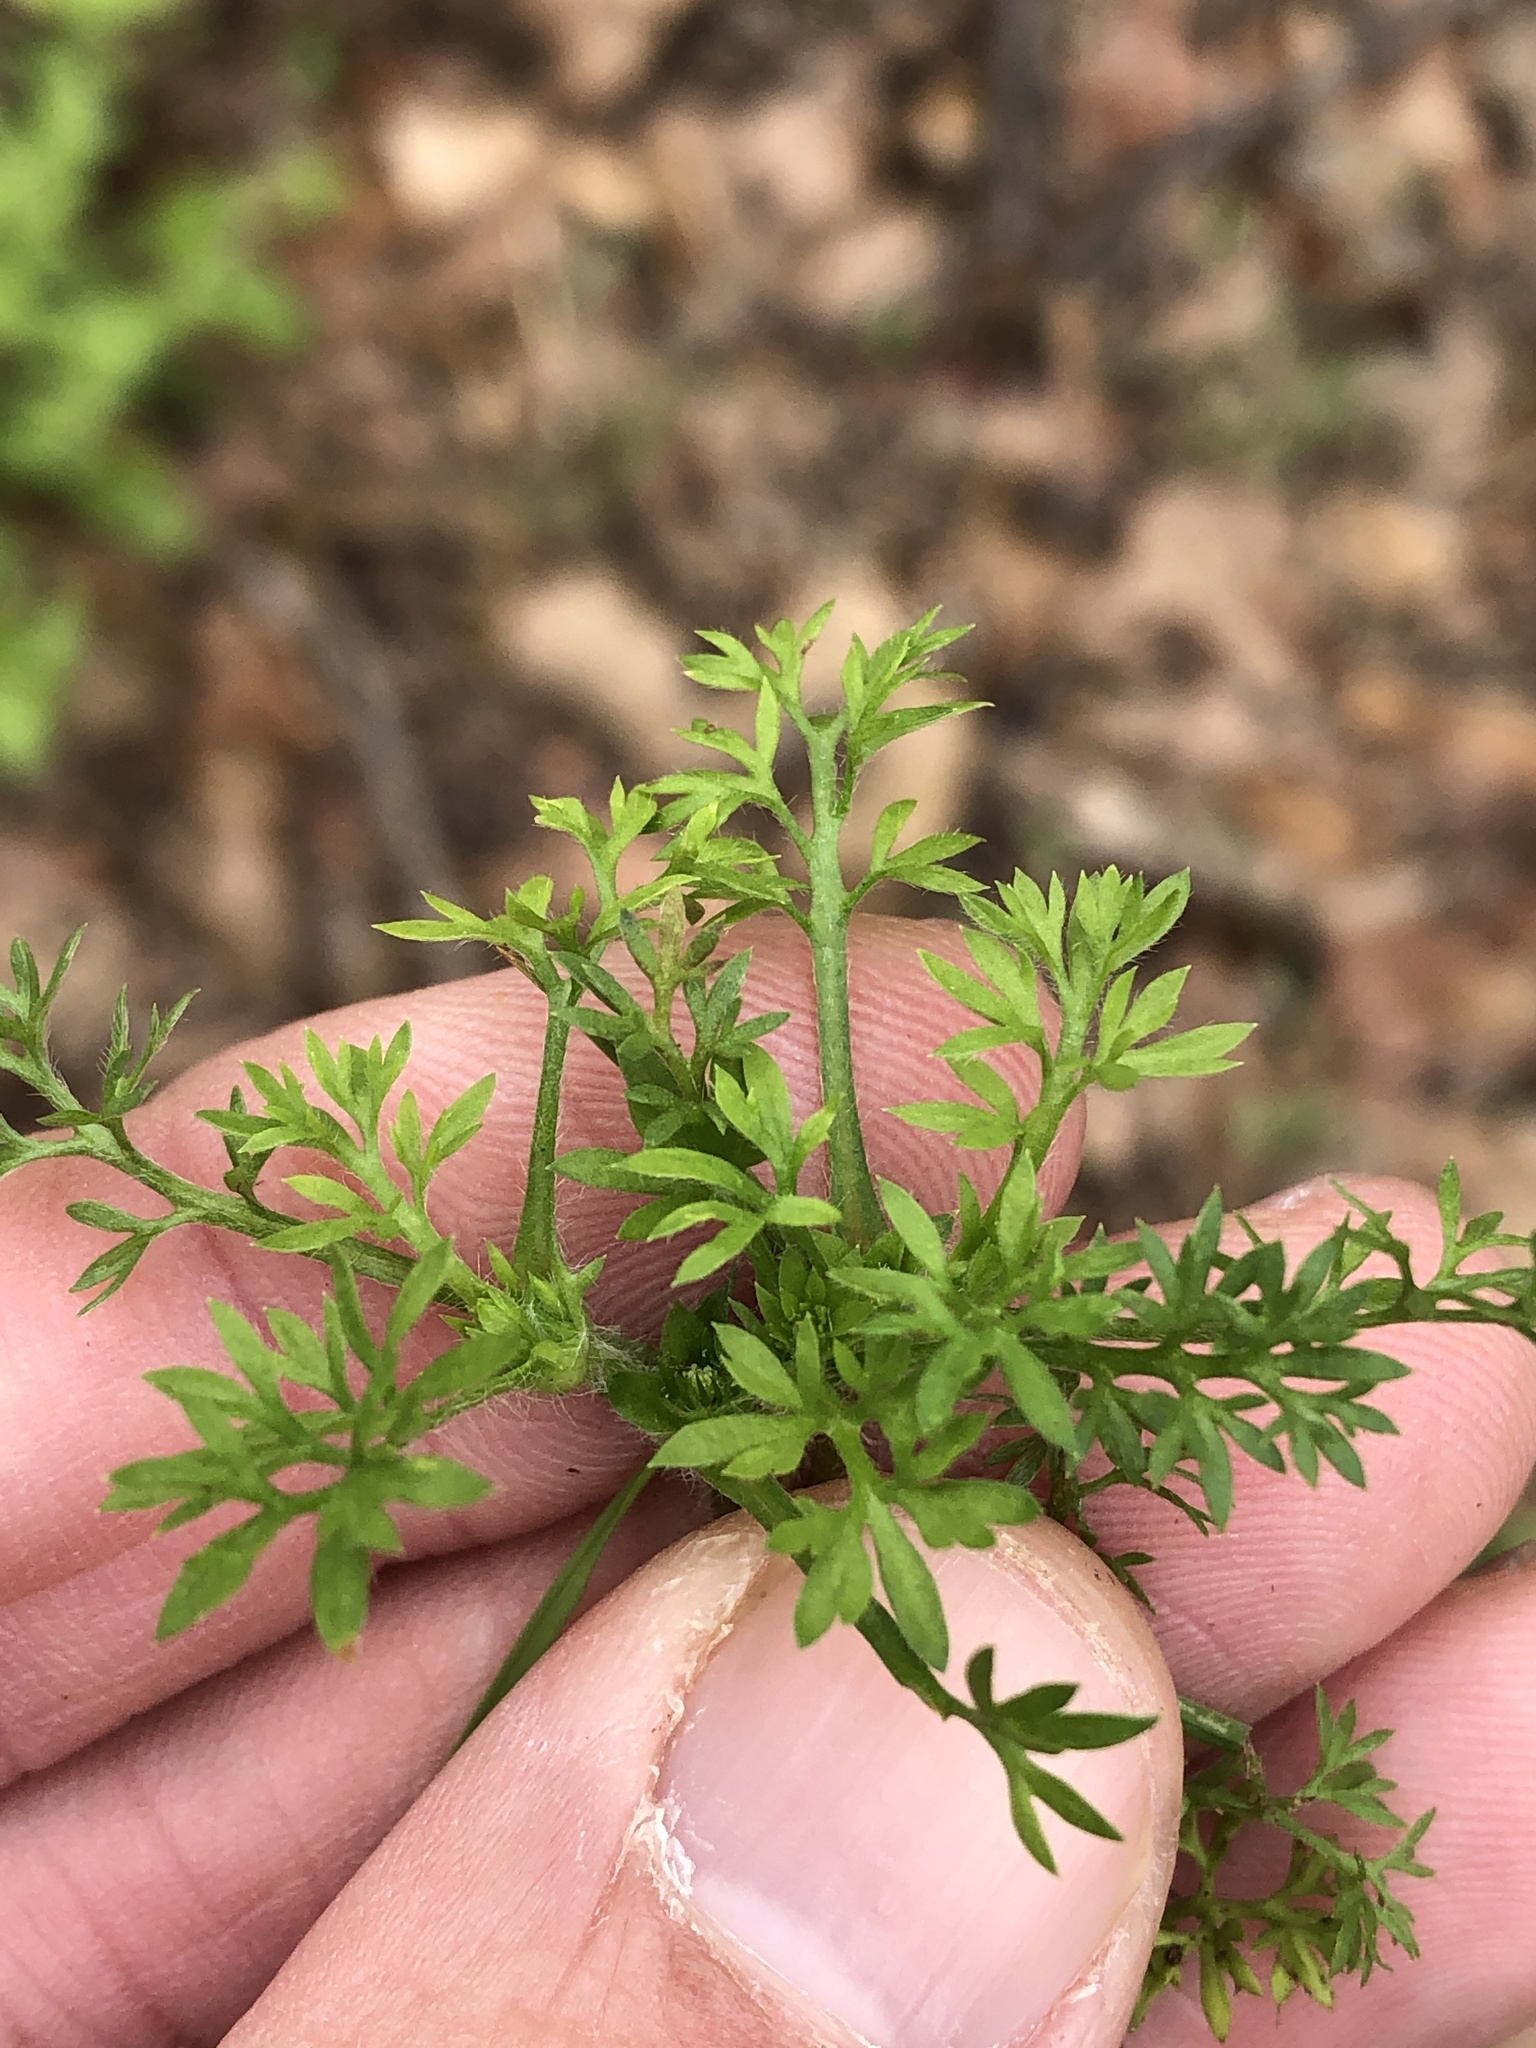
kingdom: Plantae
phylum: Tracheophyta
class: Magnoliopsida
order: Asterales
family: Asteraceae
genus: Soliva
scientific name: Soliva sessilis
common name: Field burrweed
